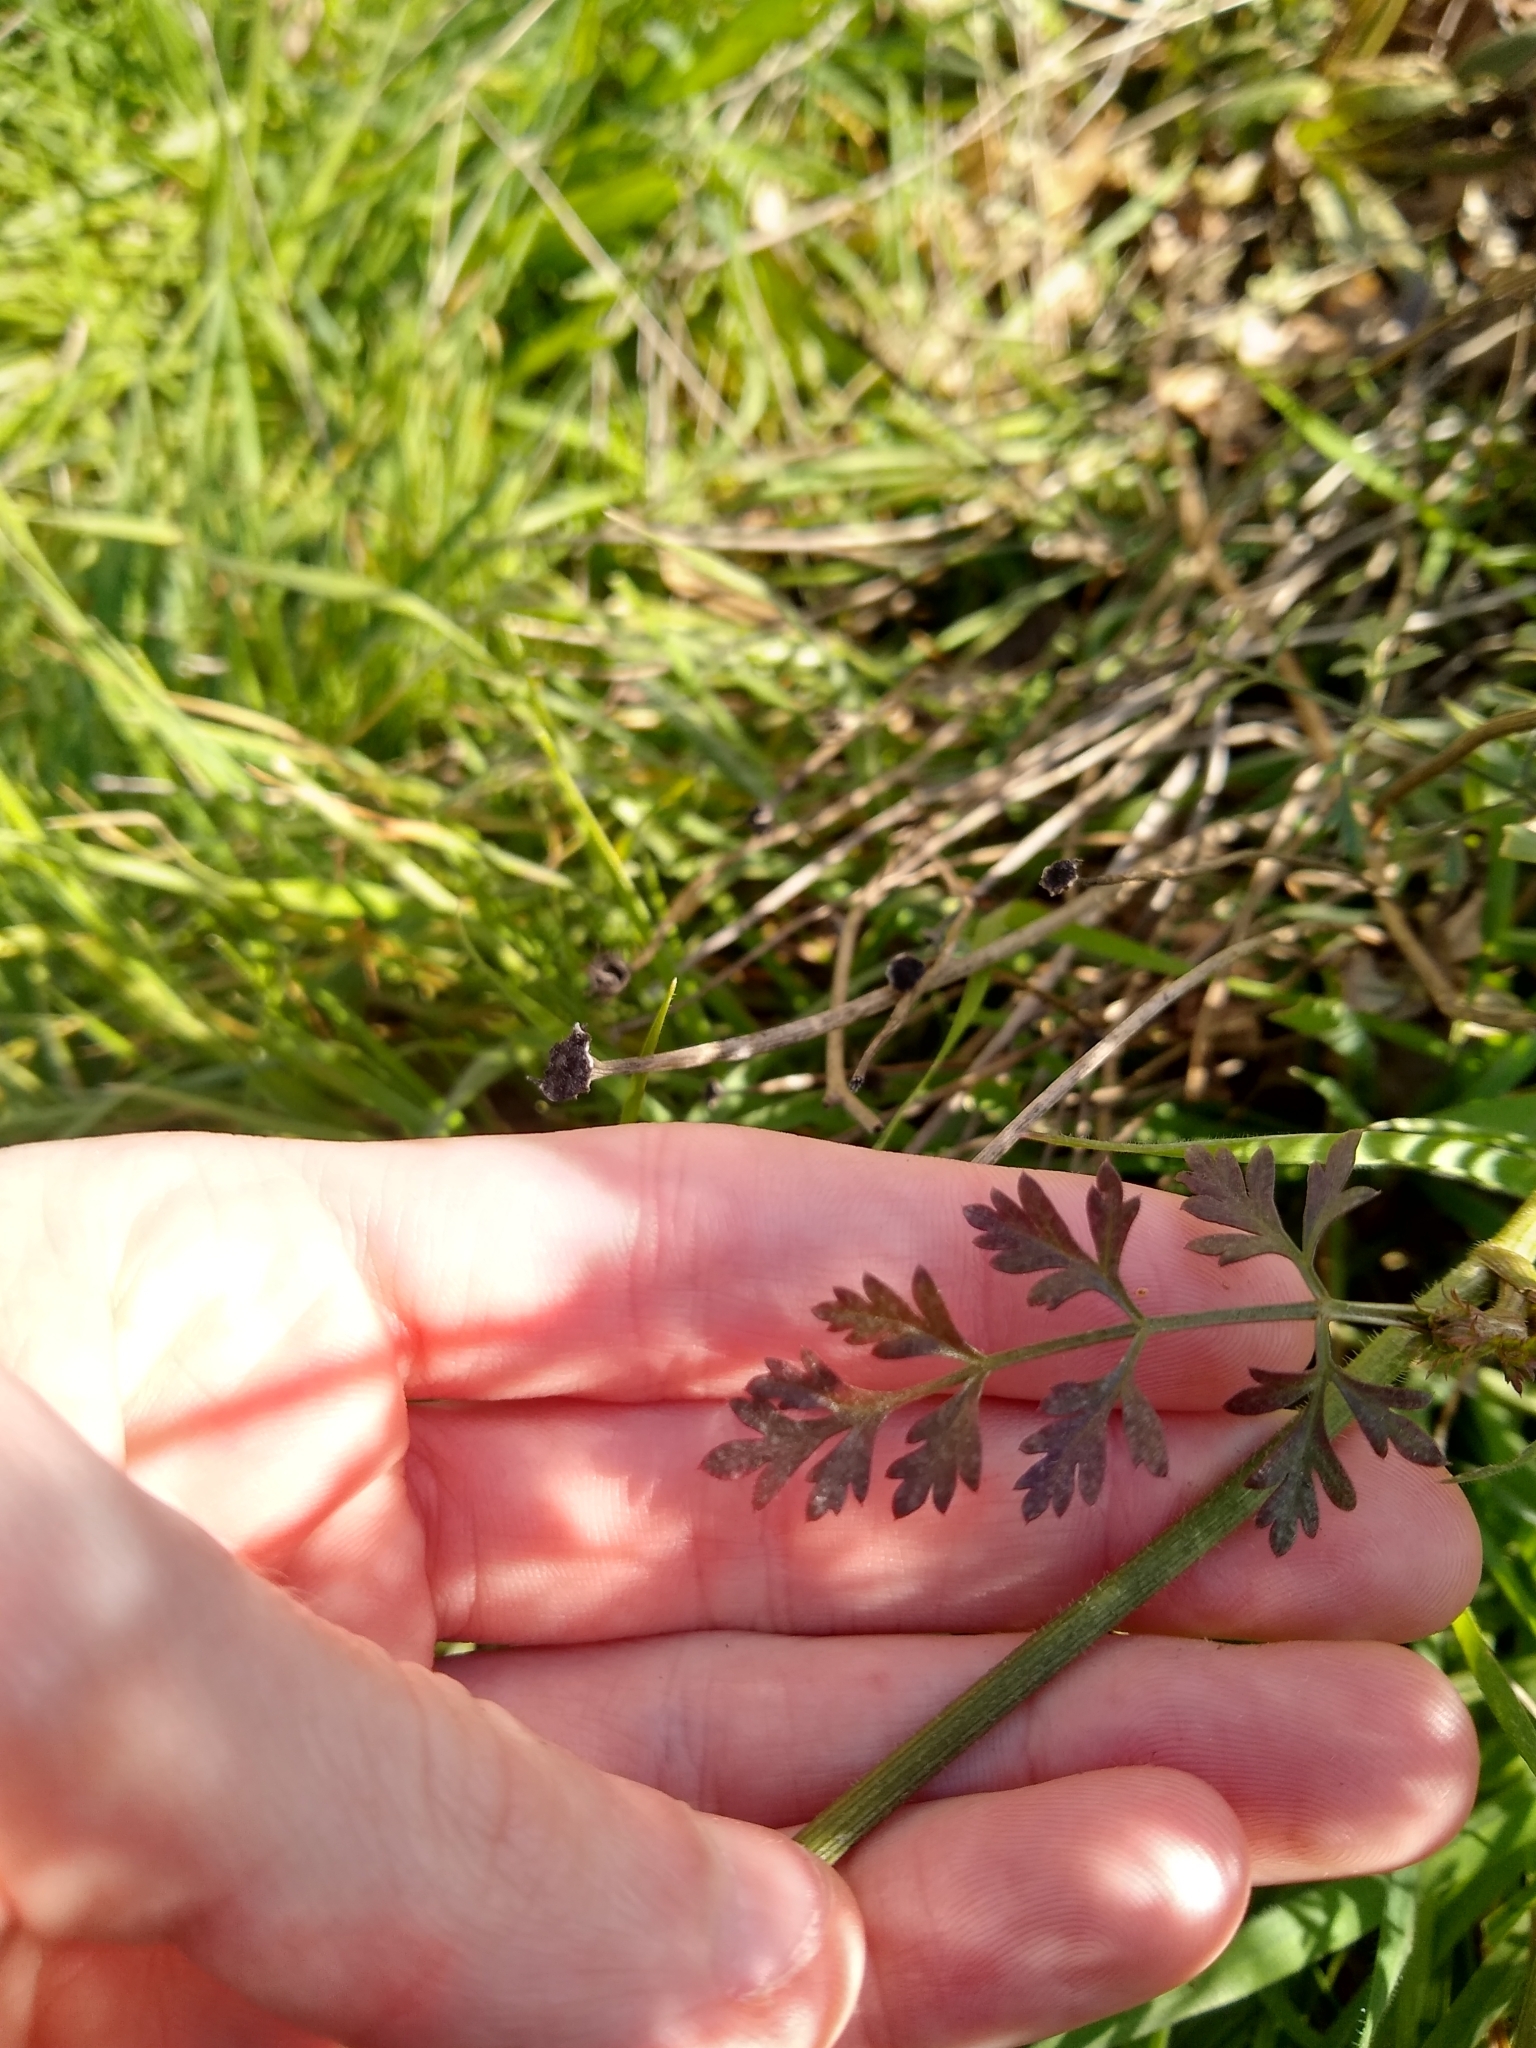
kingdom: Plantae
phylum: Tracheophyta
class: Magnoliopsida
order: Apiales
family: Apiaceae
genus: Daucus
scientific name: Daucus carota
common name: Wild carrot
